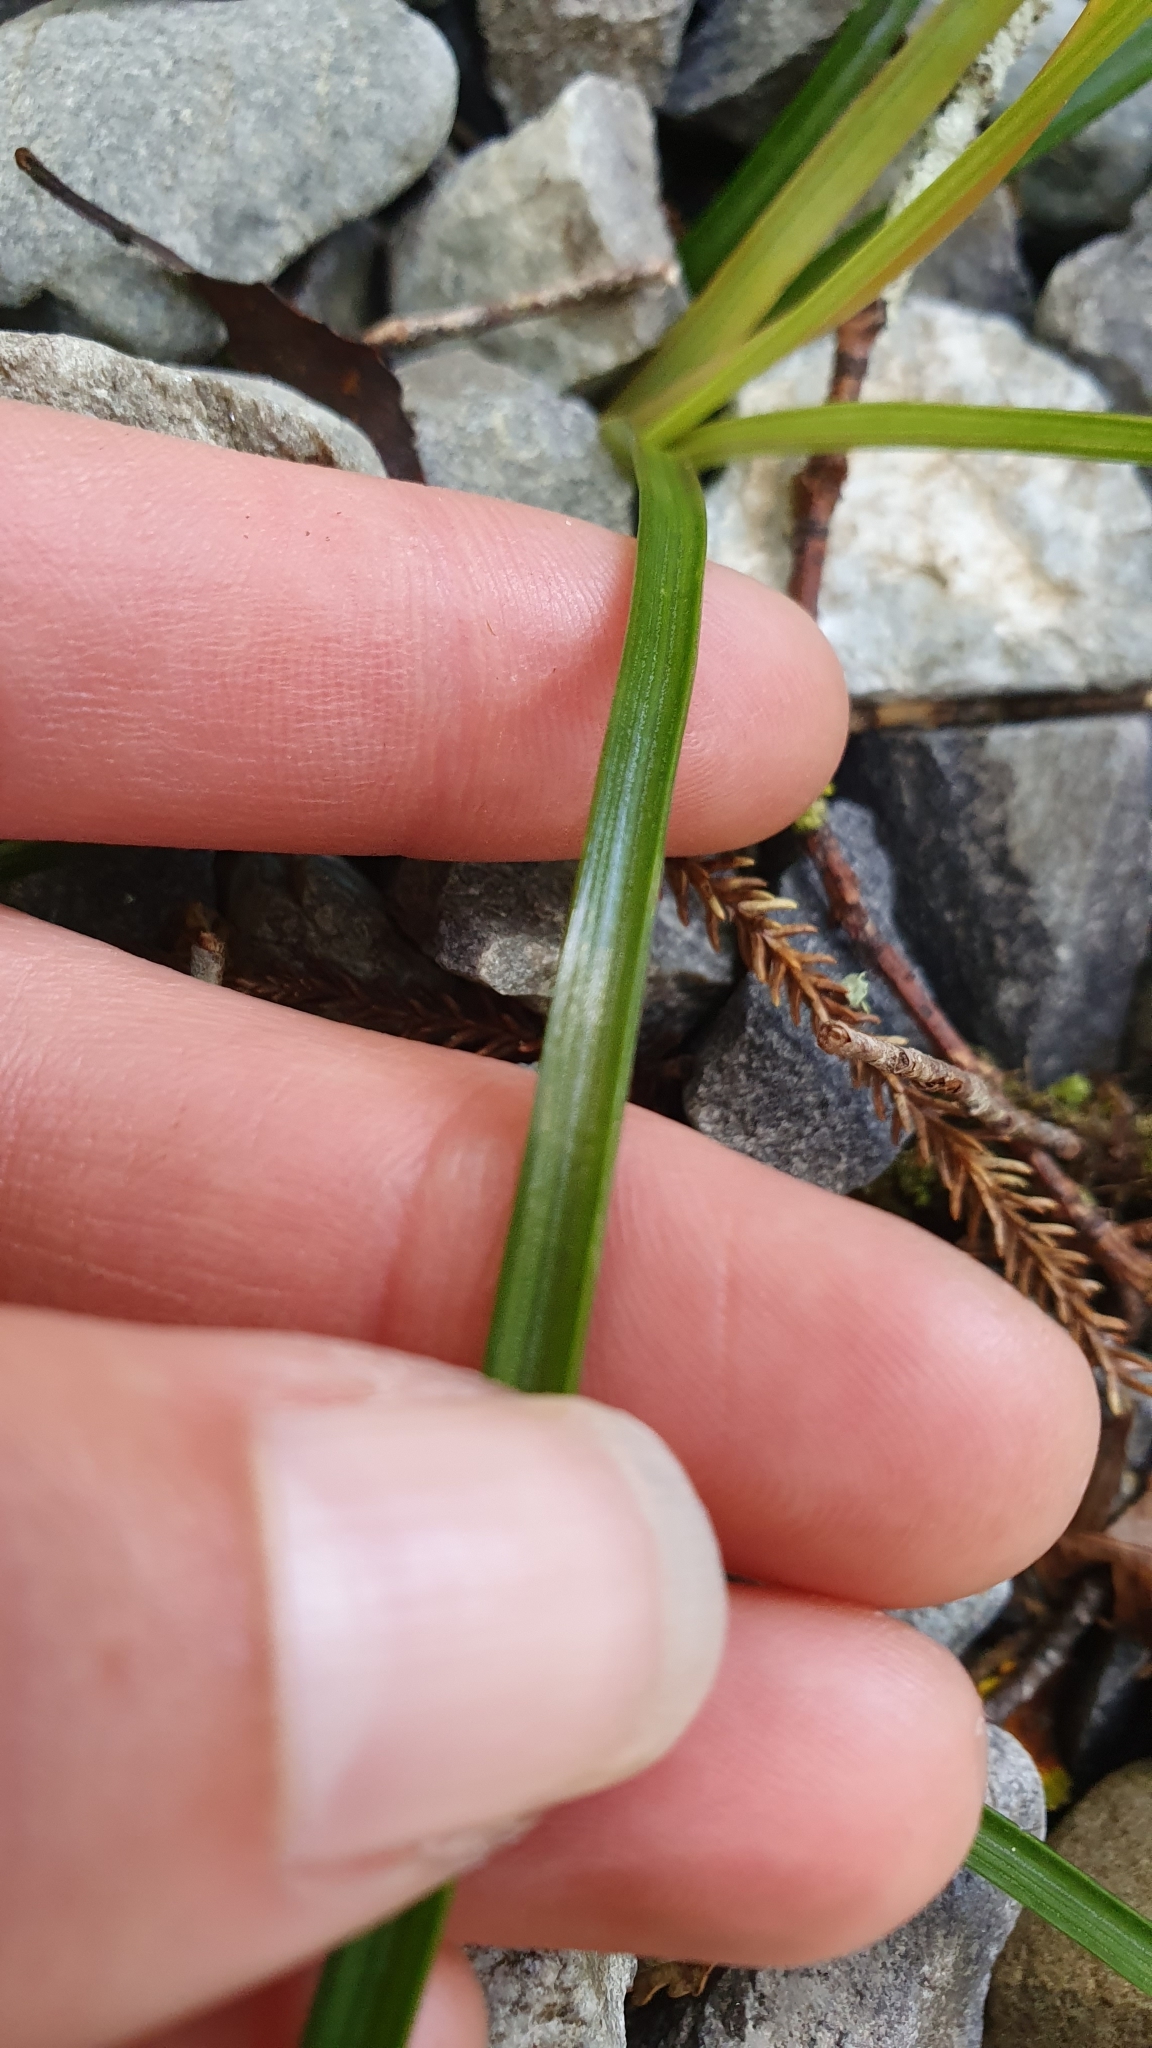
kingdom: Plantae
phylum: Tracheophyta
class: Liliopsida
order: Asparagales
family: Asphodelaceae
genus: Bulbinella
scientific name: Bulbinella modesta
